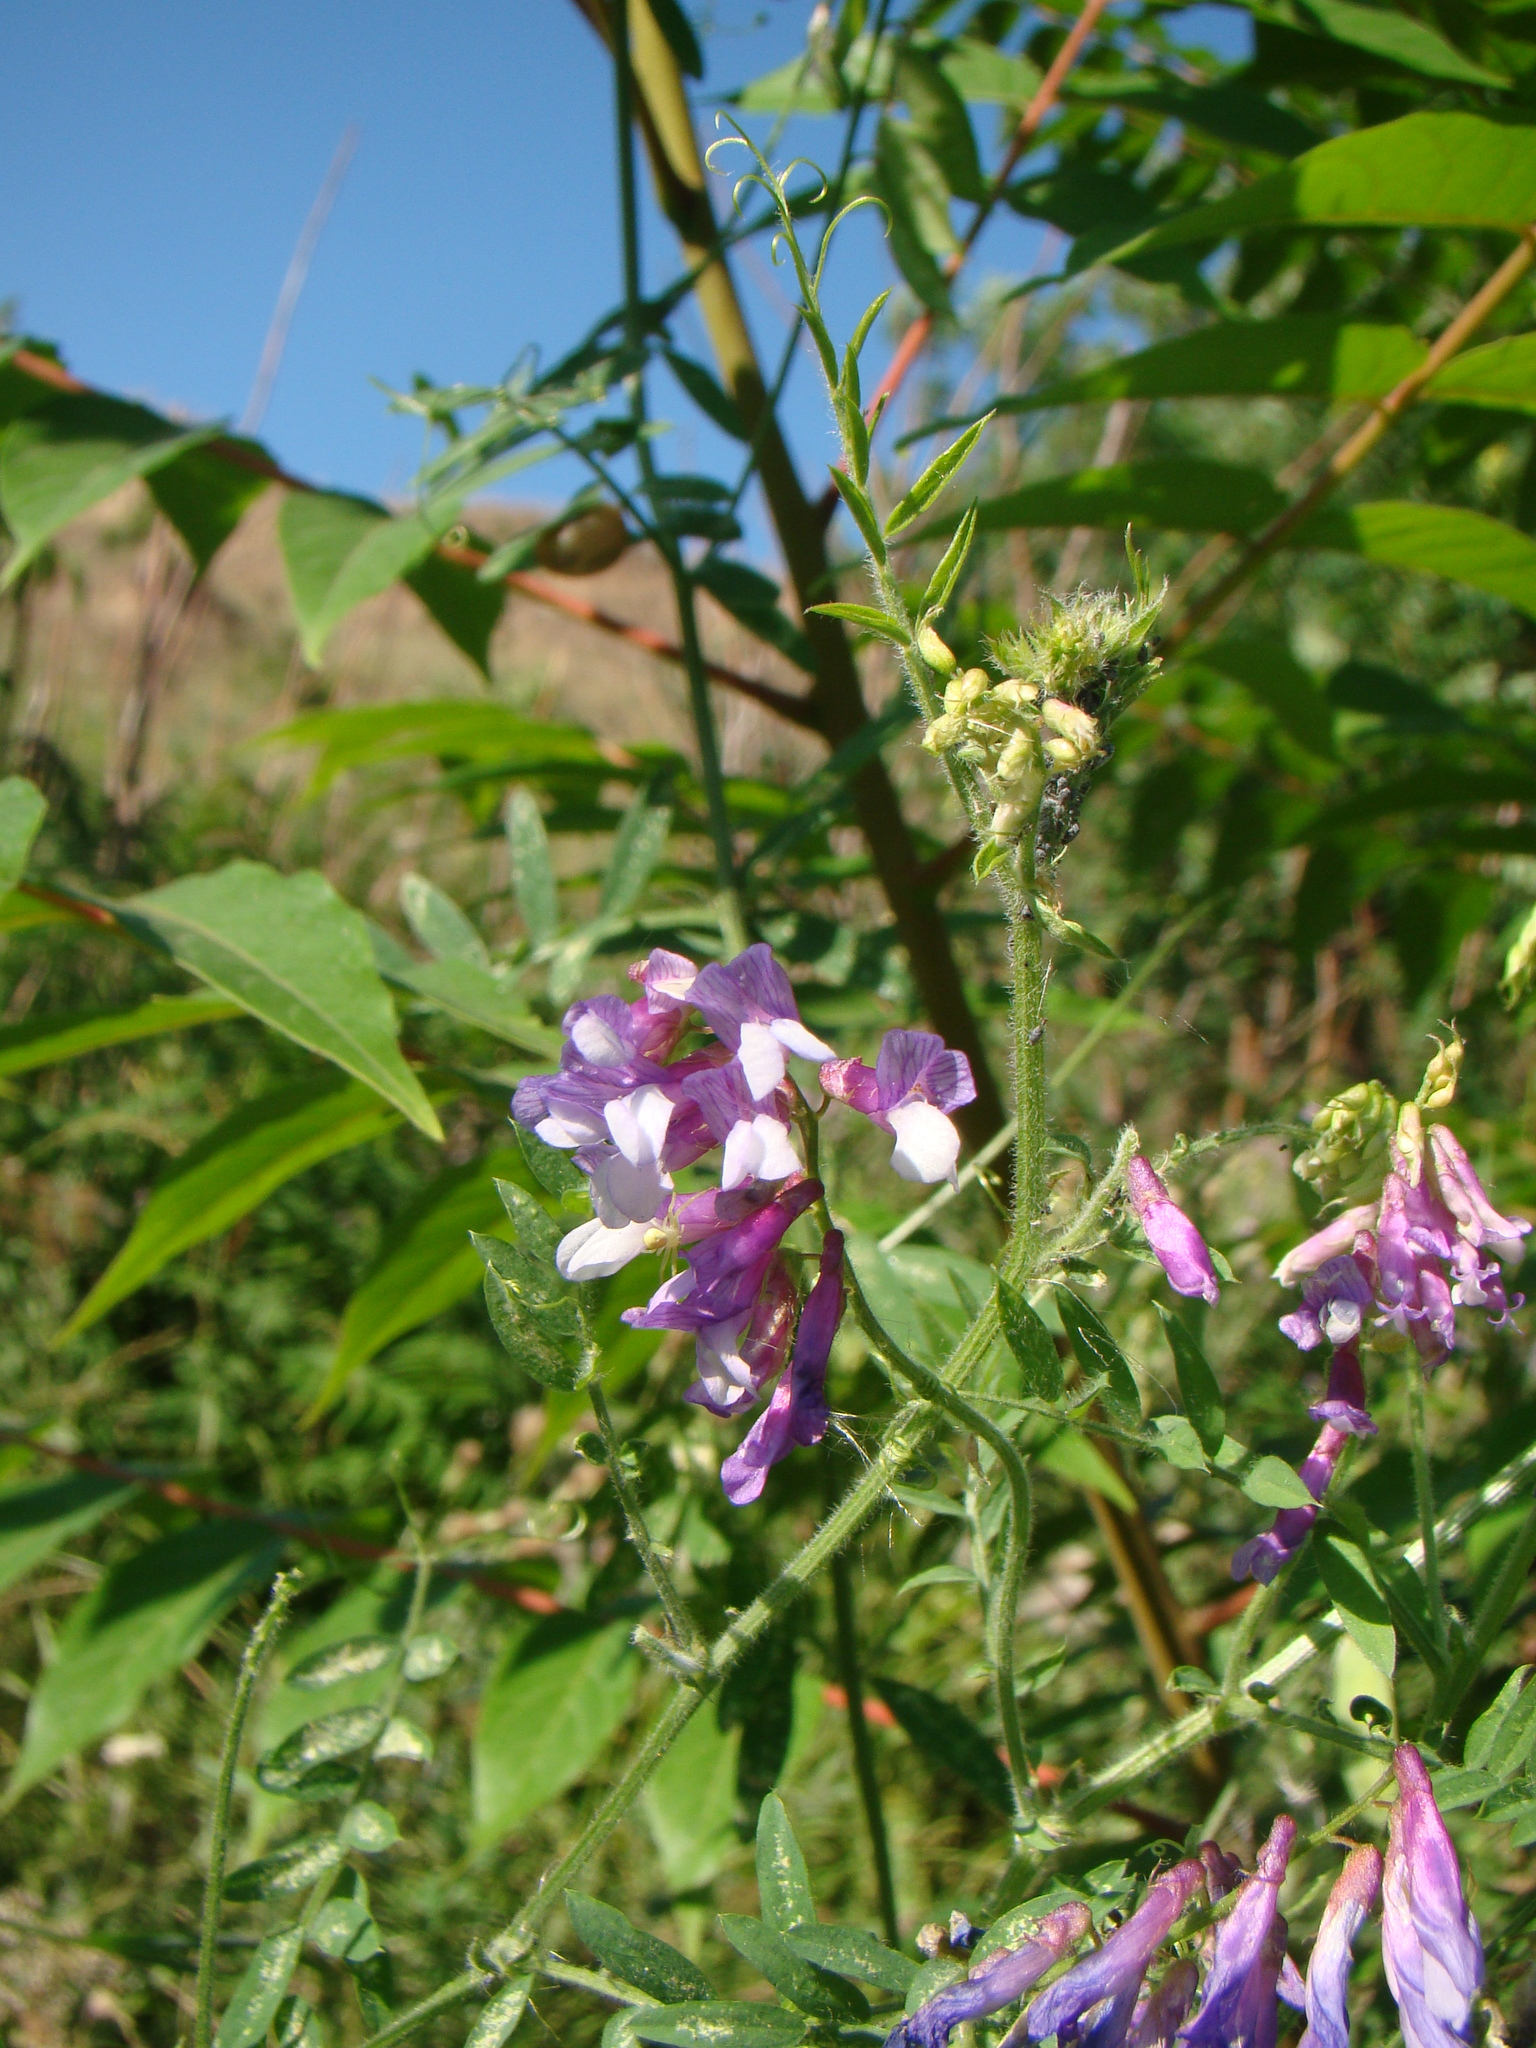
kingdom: Plantae
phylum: Tracheophyta
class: Magnoliopsida
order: Fabales
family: Fabaceae
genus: Vicia
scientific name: Vicia villosa
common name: Fodder vetch
